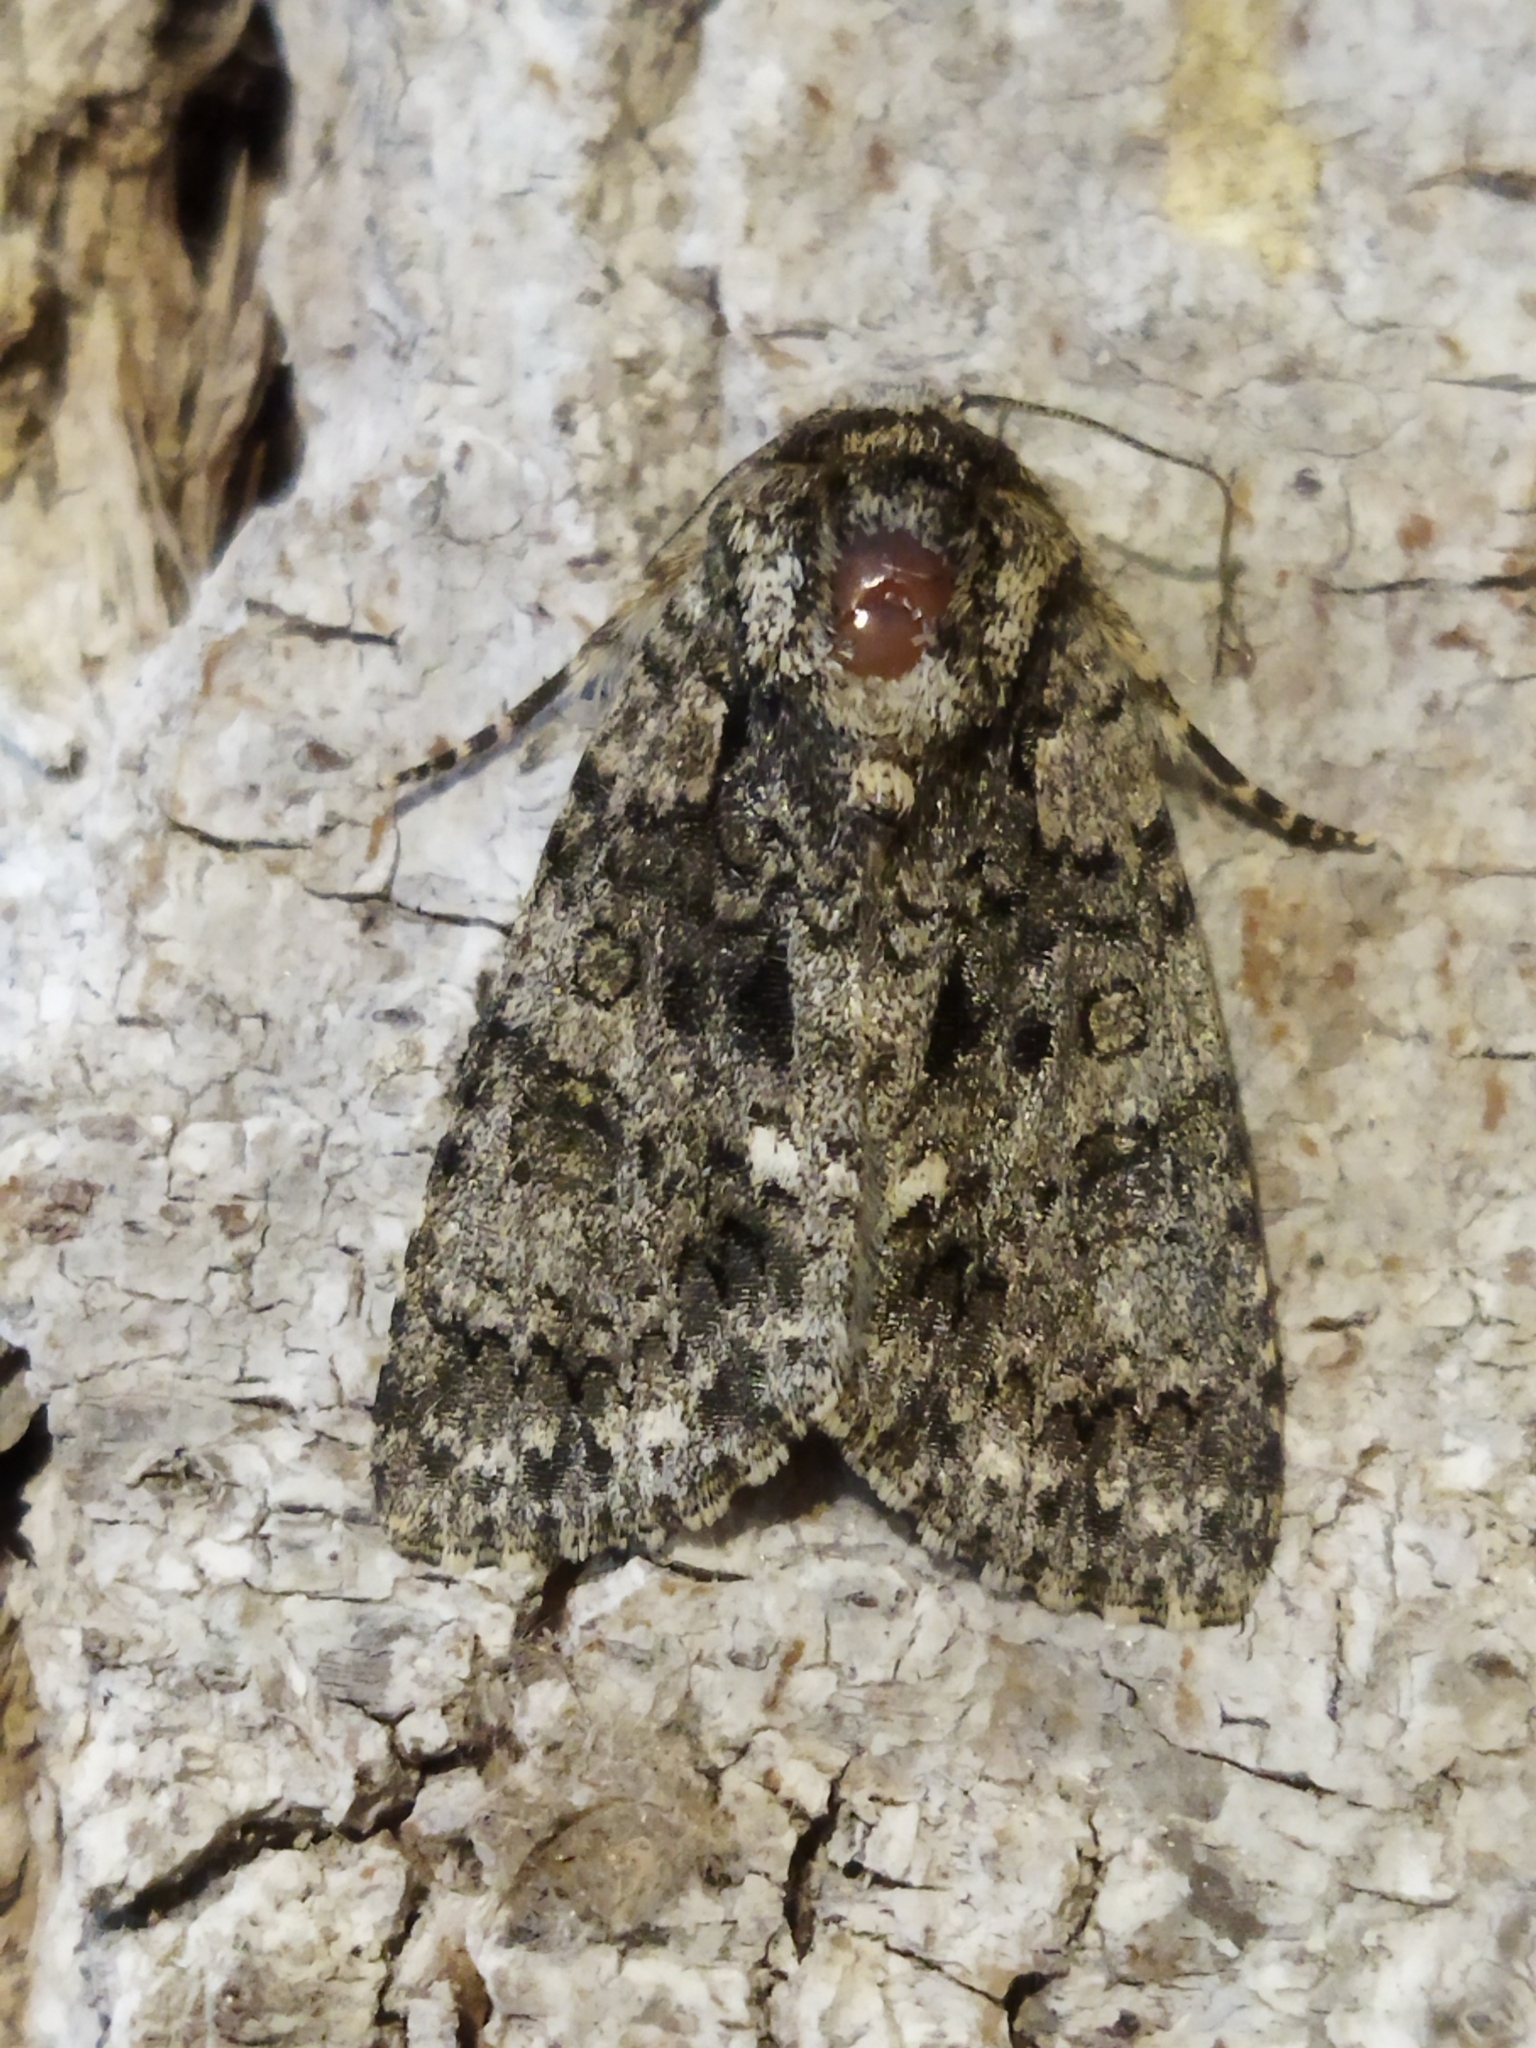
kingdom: Animalia
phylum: Arthropoda
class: Insecta
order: Lepidoptera
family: Noctuidae
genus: Acronicta
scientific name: Acronicta rumicis
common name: Knot grass
